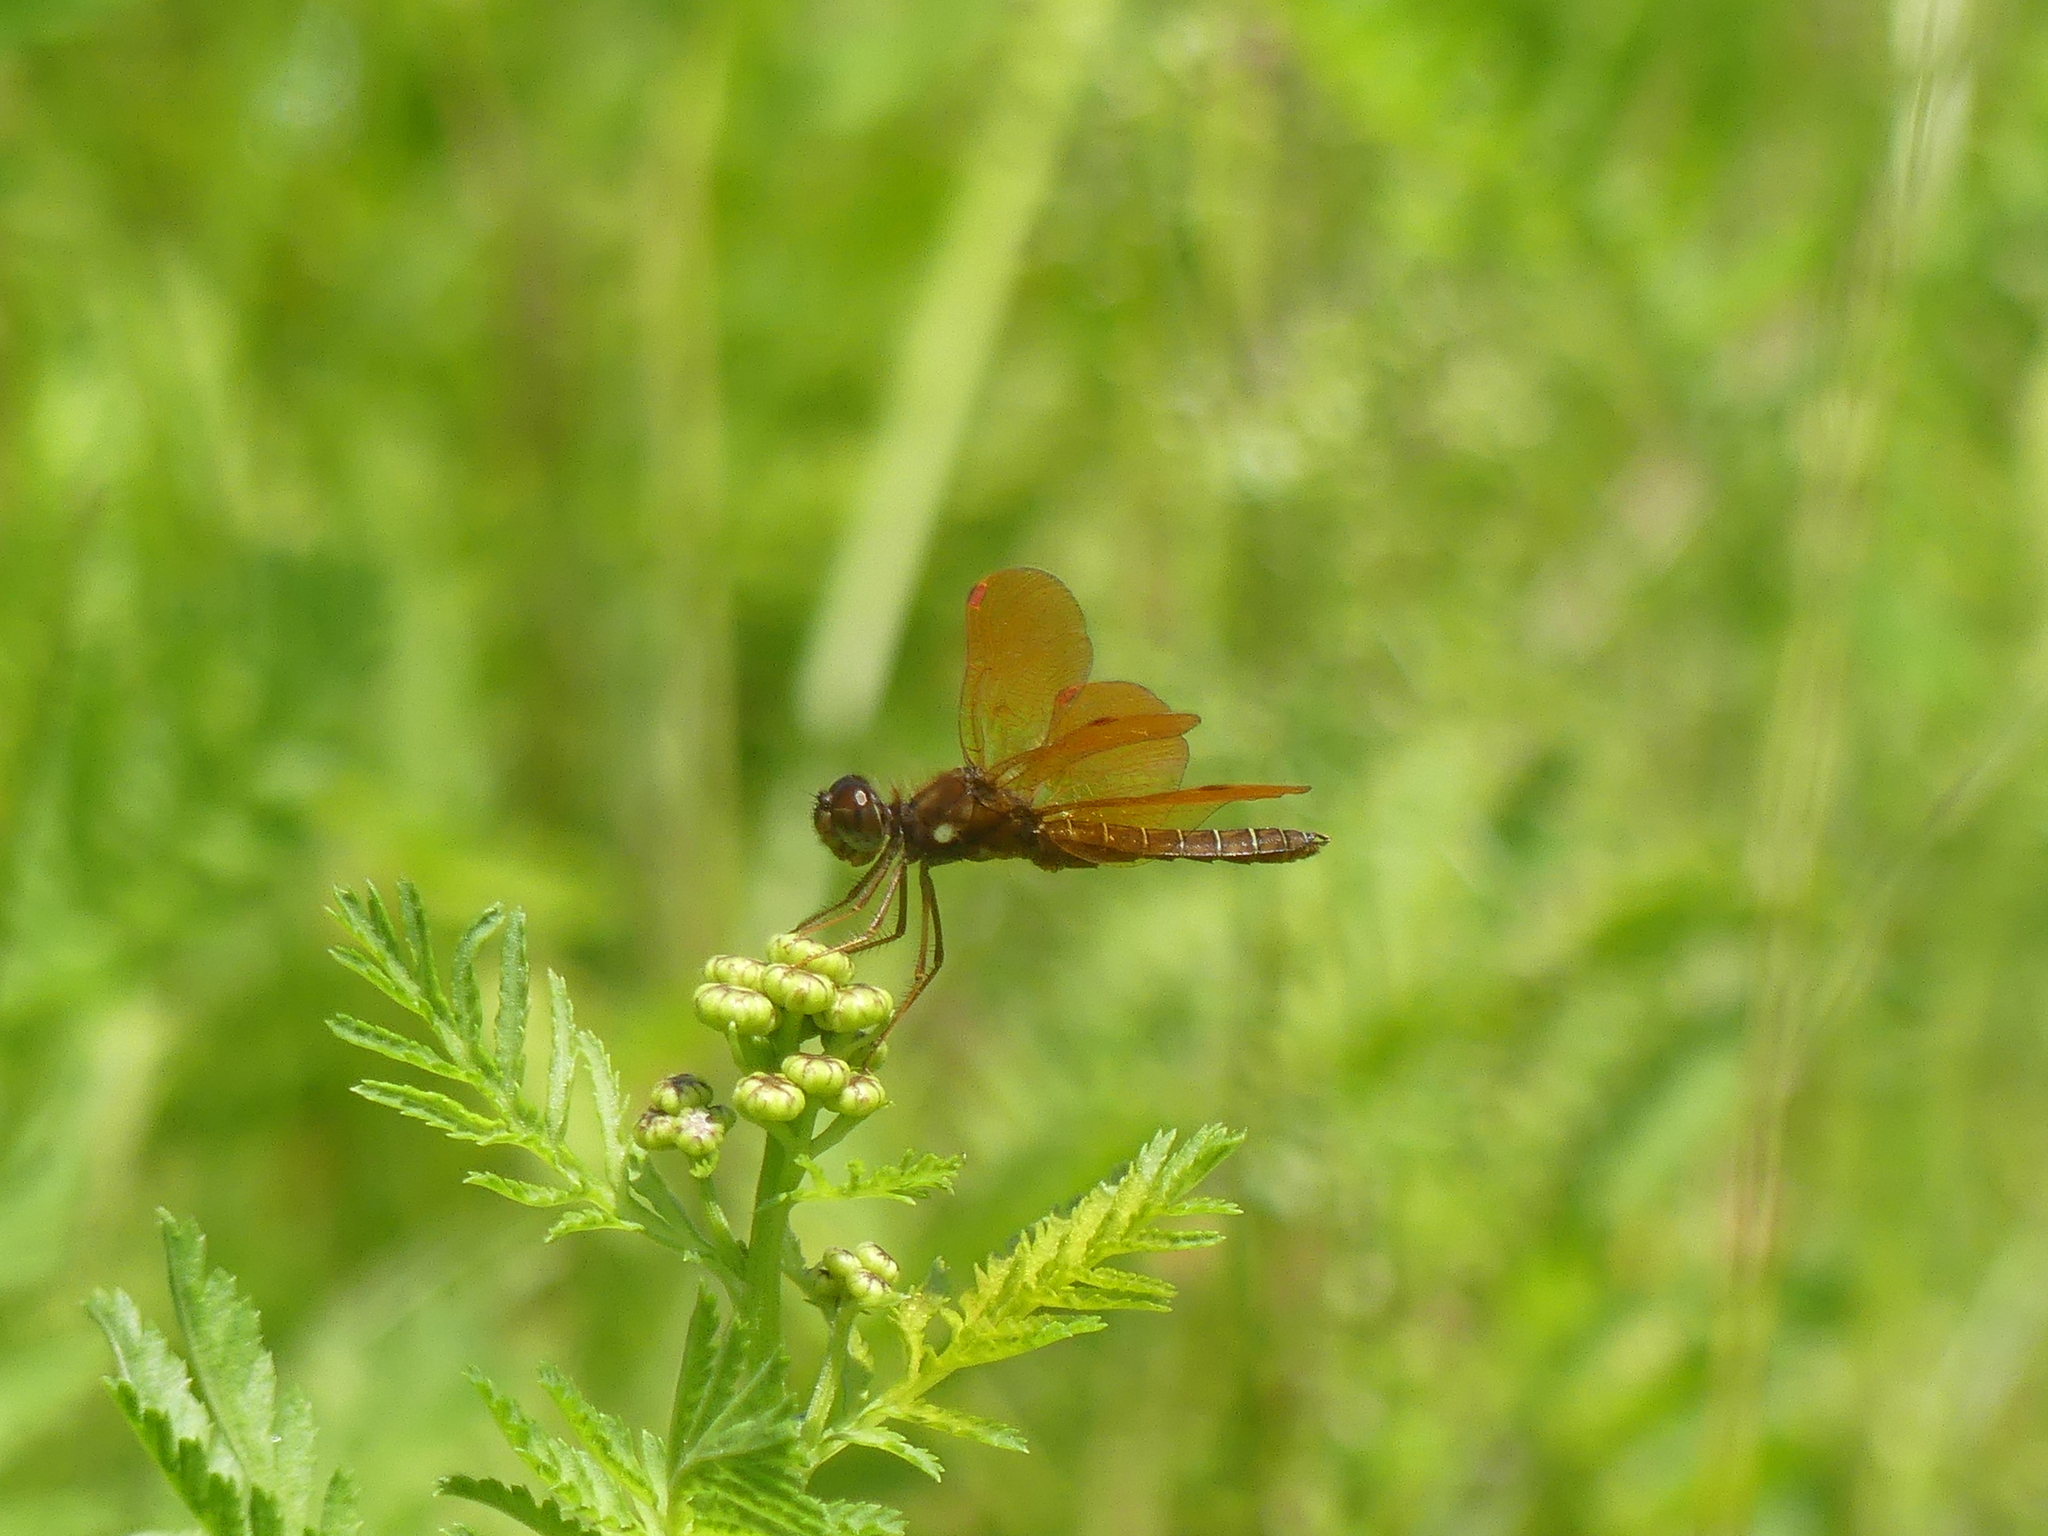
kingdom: Animalia
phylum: Arthropoda
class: Insecta
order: Odonata
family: Libellulidae
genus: Perithemis
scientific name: Perithemis tenera
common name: Eastern amberwing
